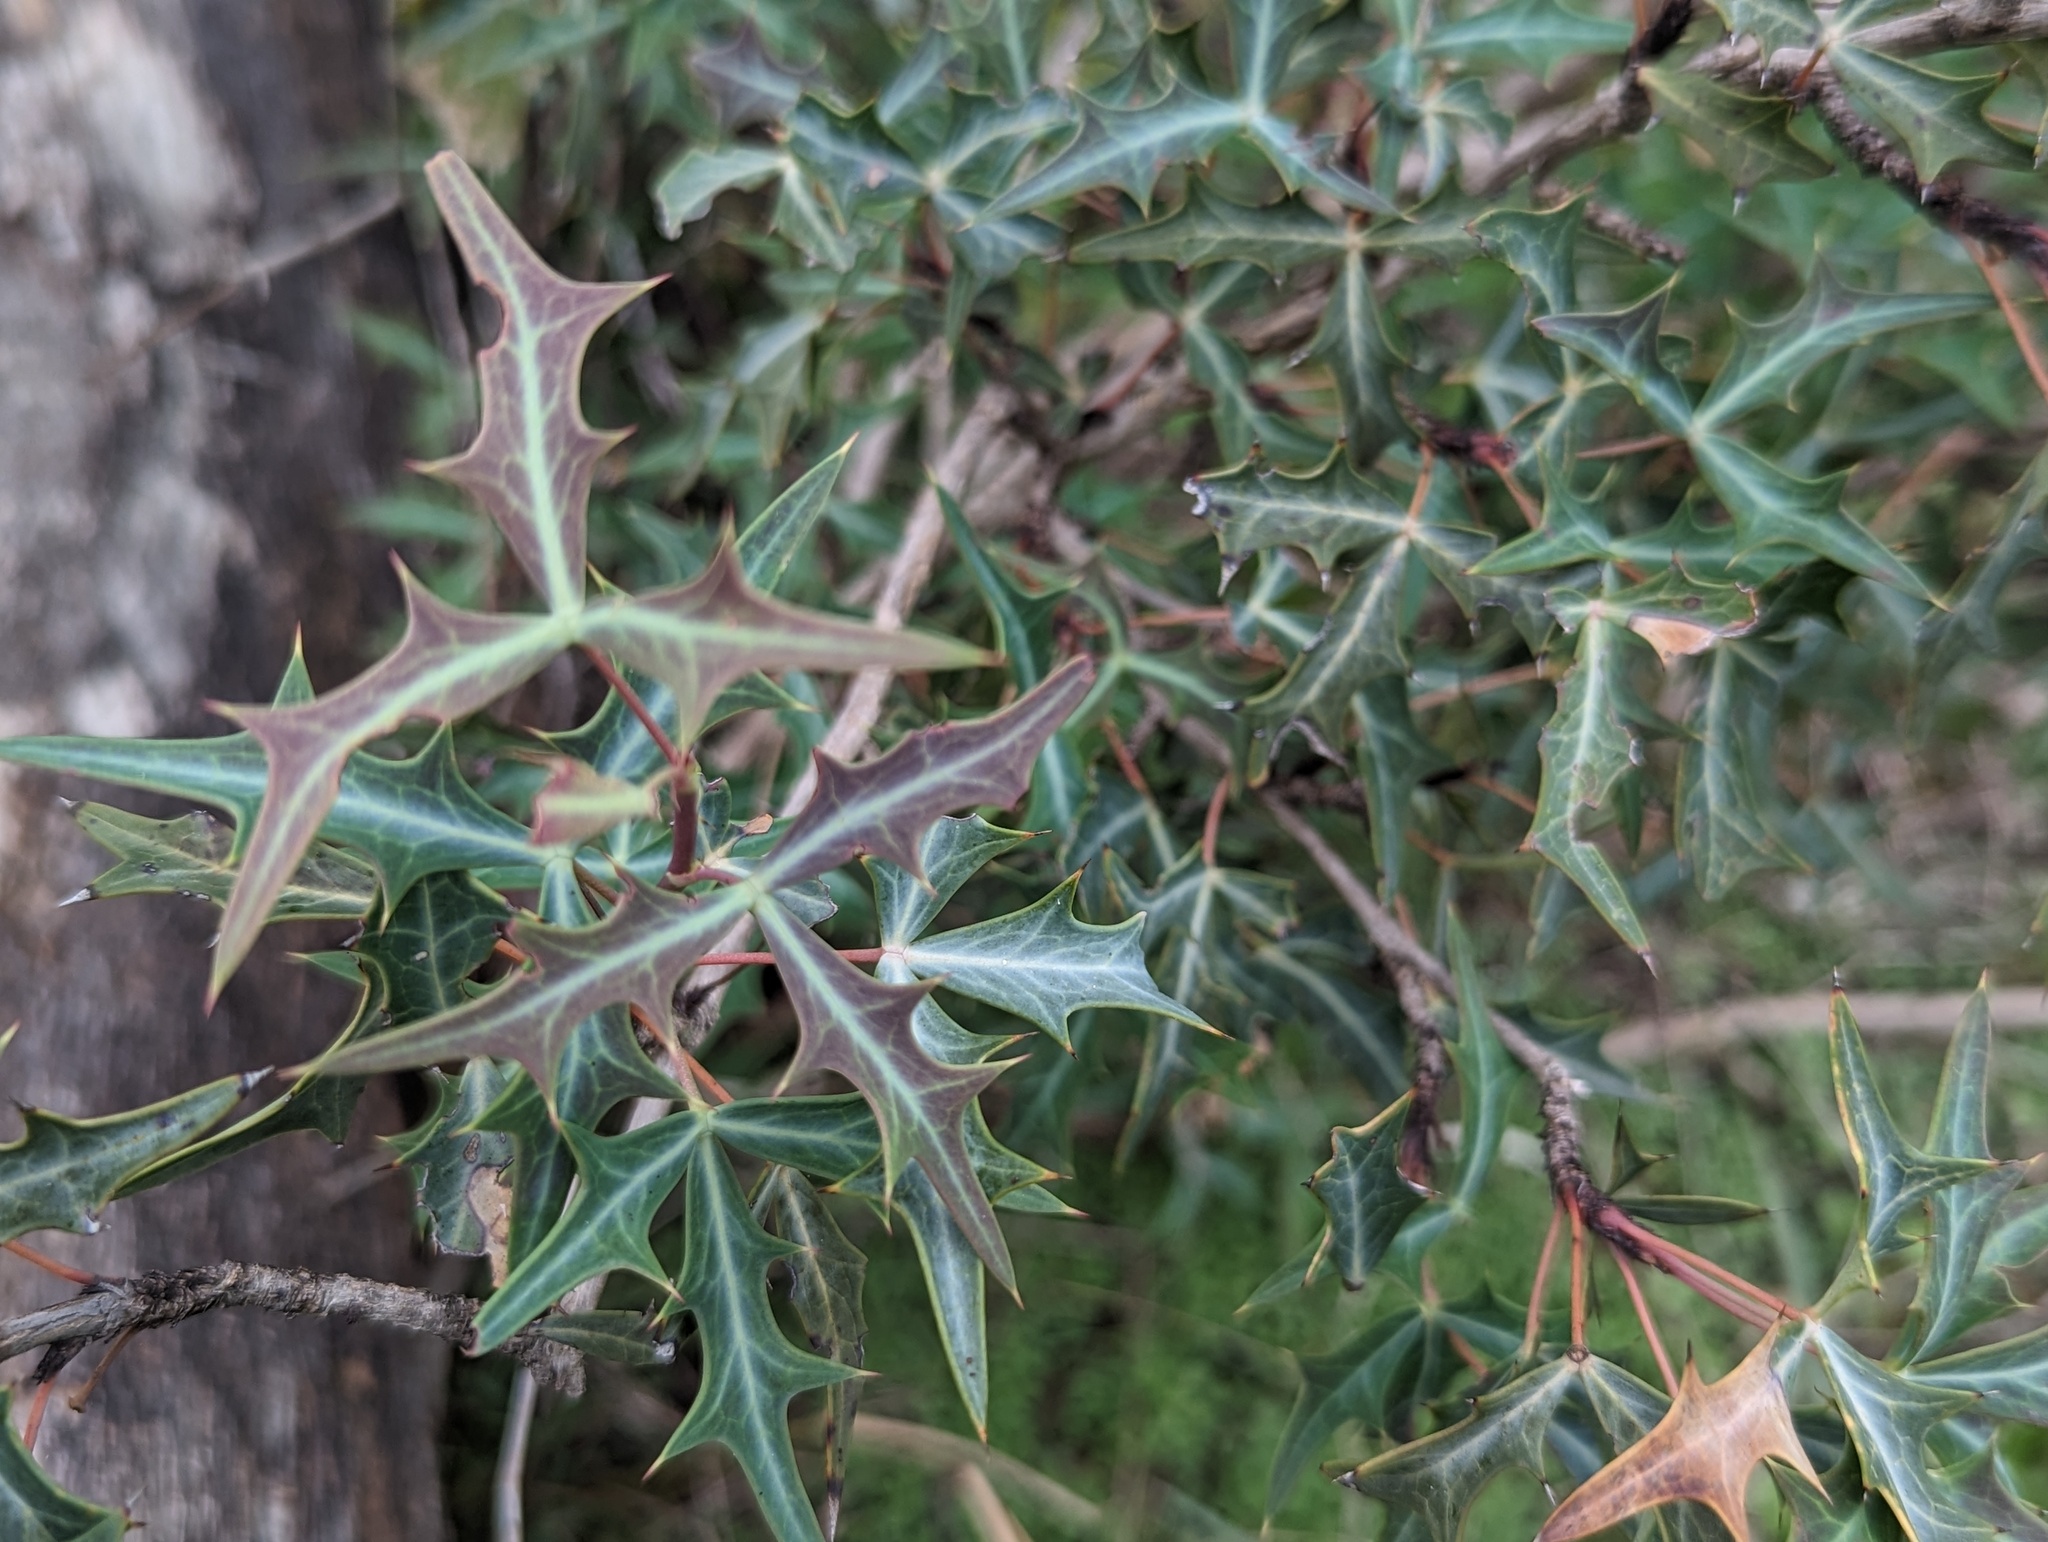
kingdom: Plantae
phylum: Tracheophyta
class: Magnoliopsida
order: Ranunculales
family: Berberidaceae
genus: Alloberberis
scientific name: Alloberberis trifoliolata
